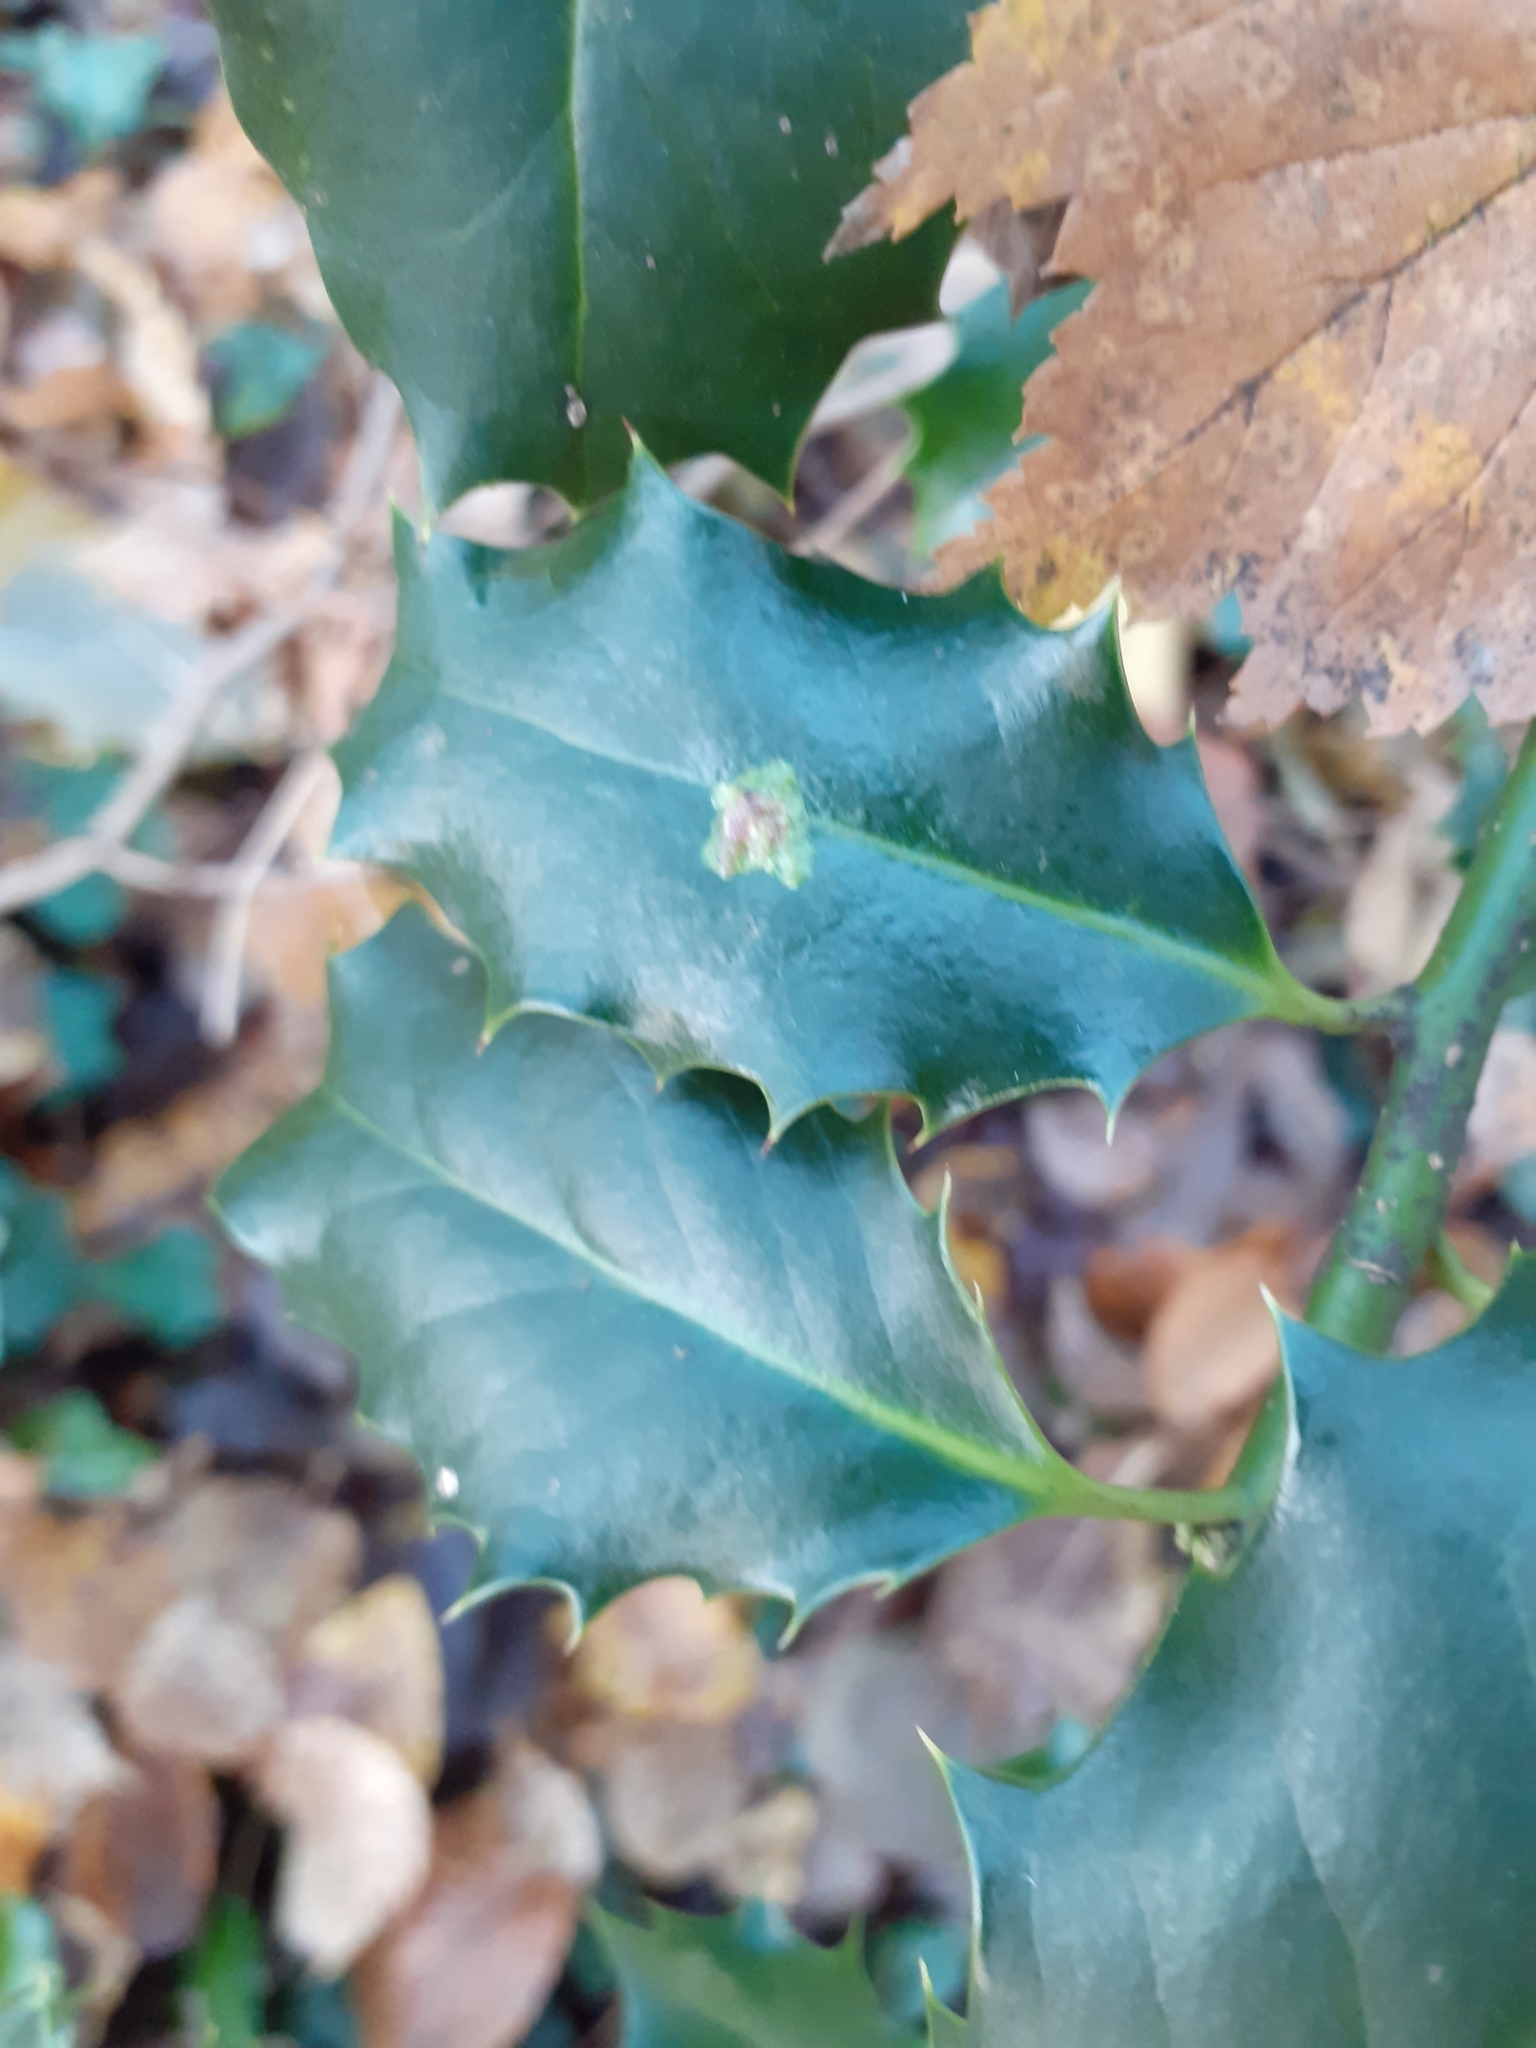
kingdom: Animalia
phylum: Arthropoda
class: Insecta
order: Diptera
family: Agromyzidae
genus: Phytomyza
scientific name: Phytomyza ilicis
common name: Holly leafminer
